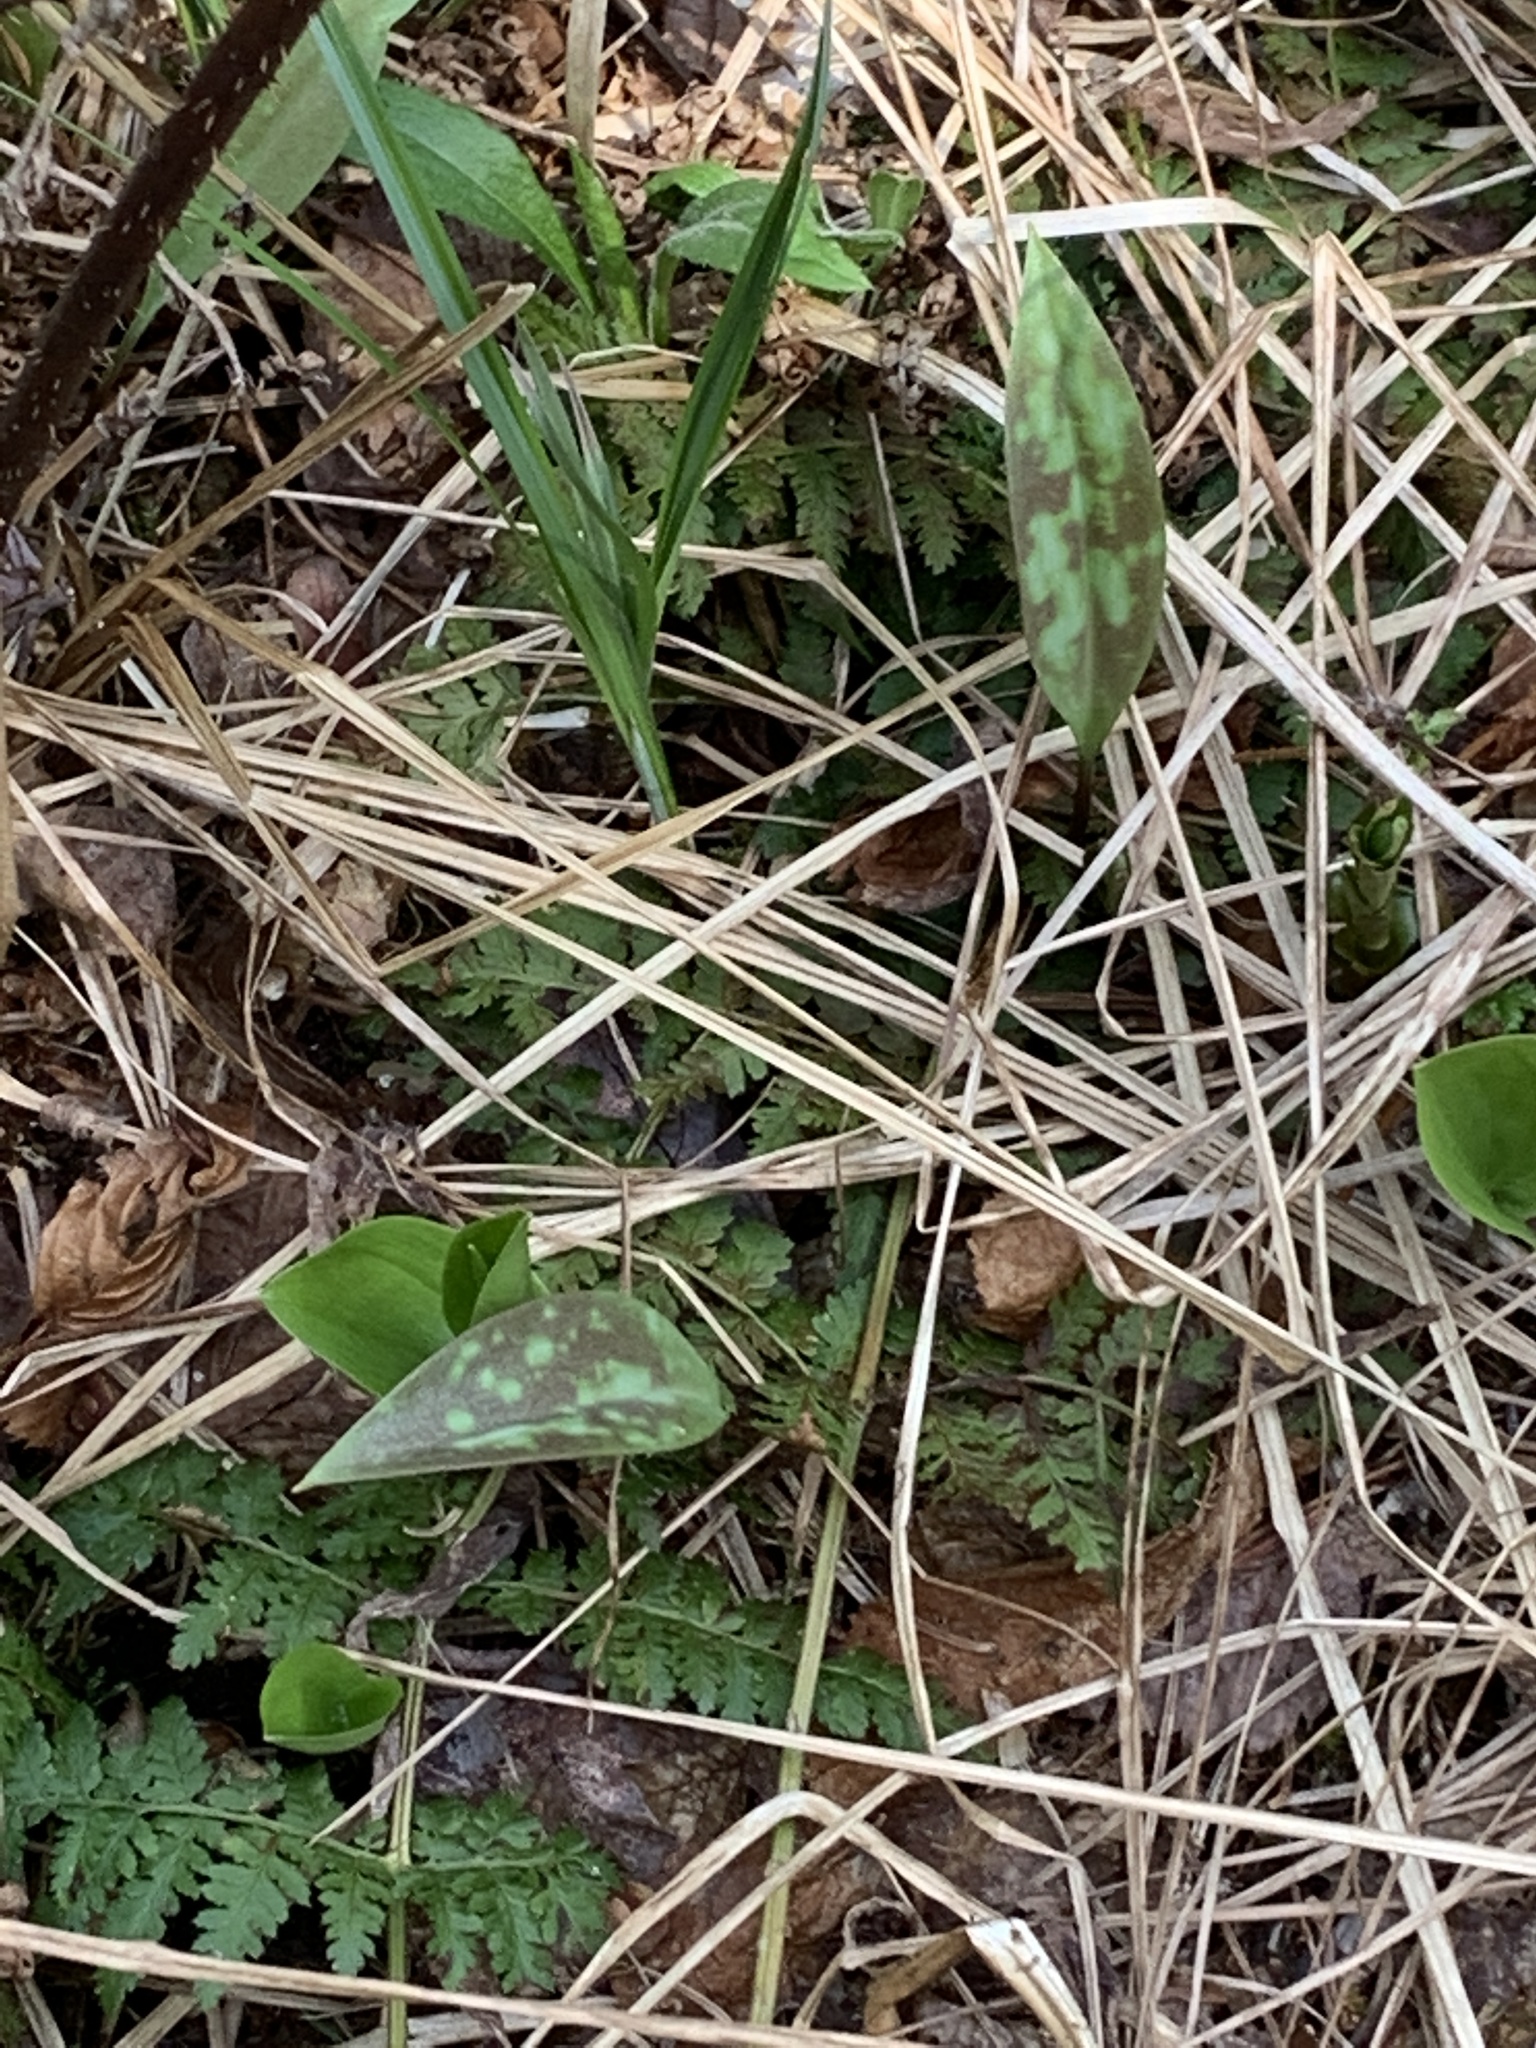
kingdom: Plantae
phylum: Tracheophyta
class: Liliopsida
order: Liliales
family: Liliaceae
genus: Erythronium
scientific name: Erythronium americanum
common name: Yellow adder's-tongue
